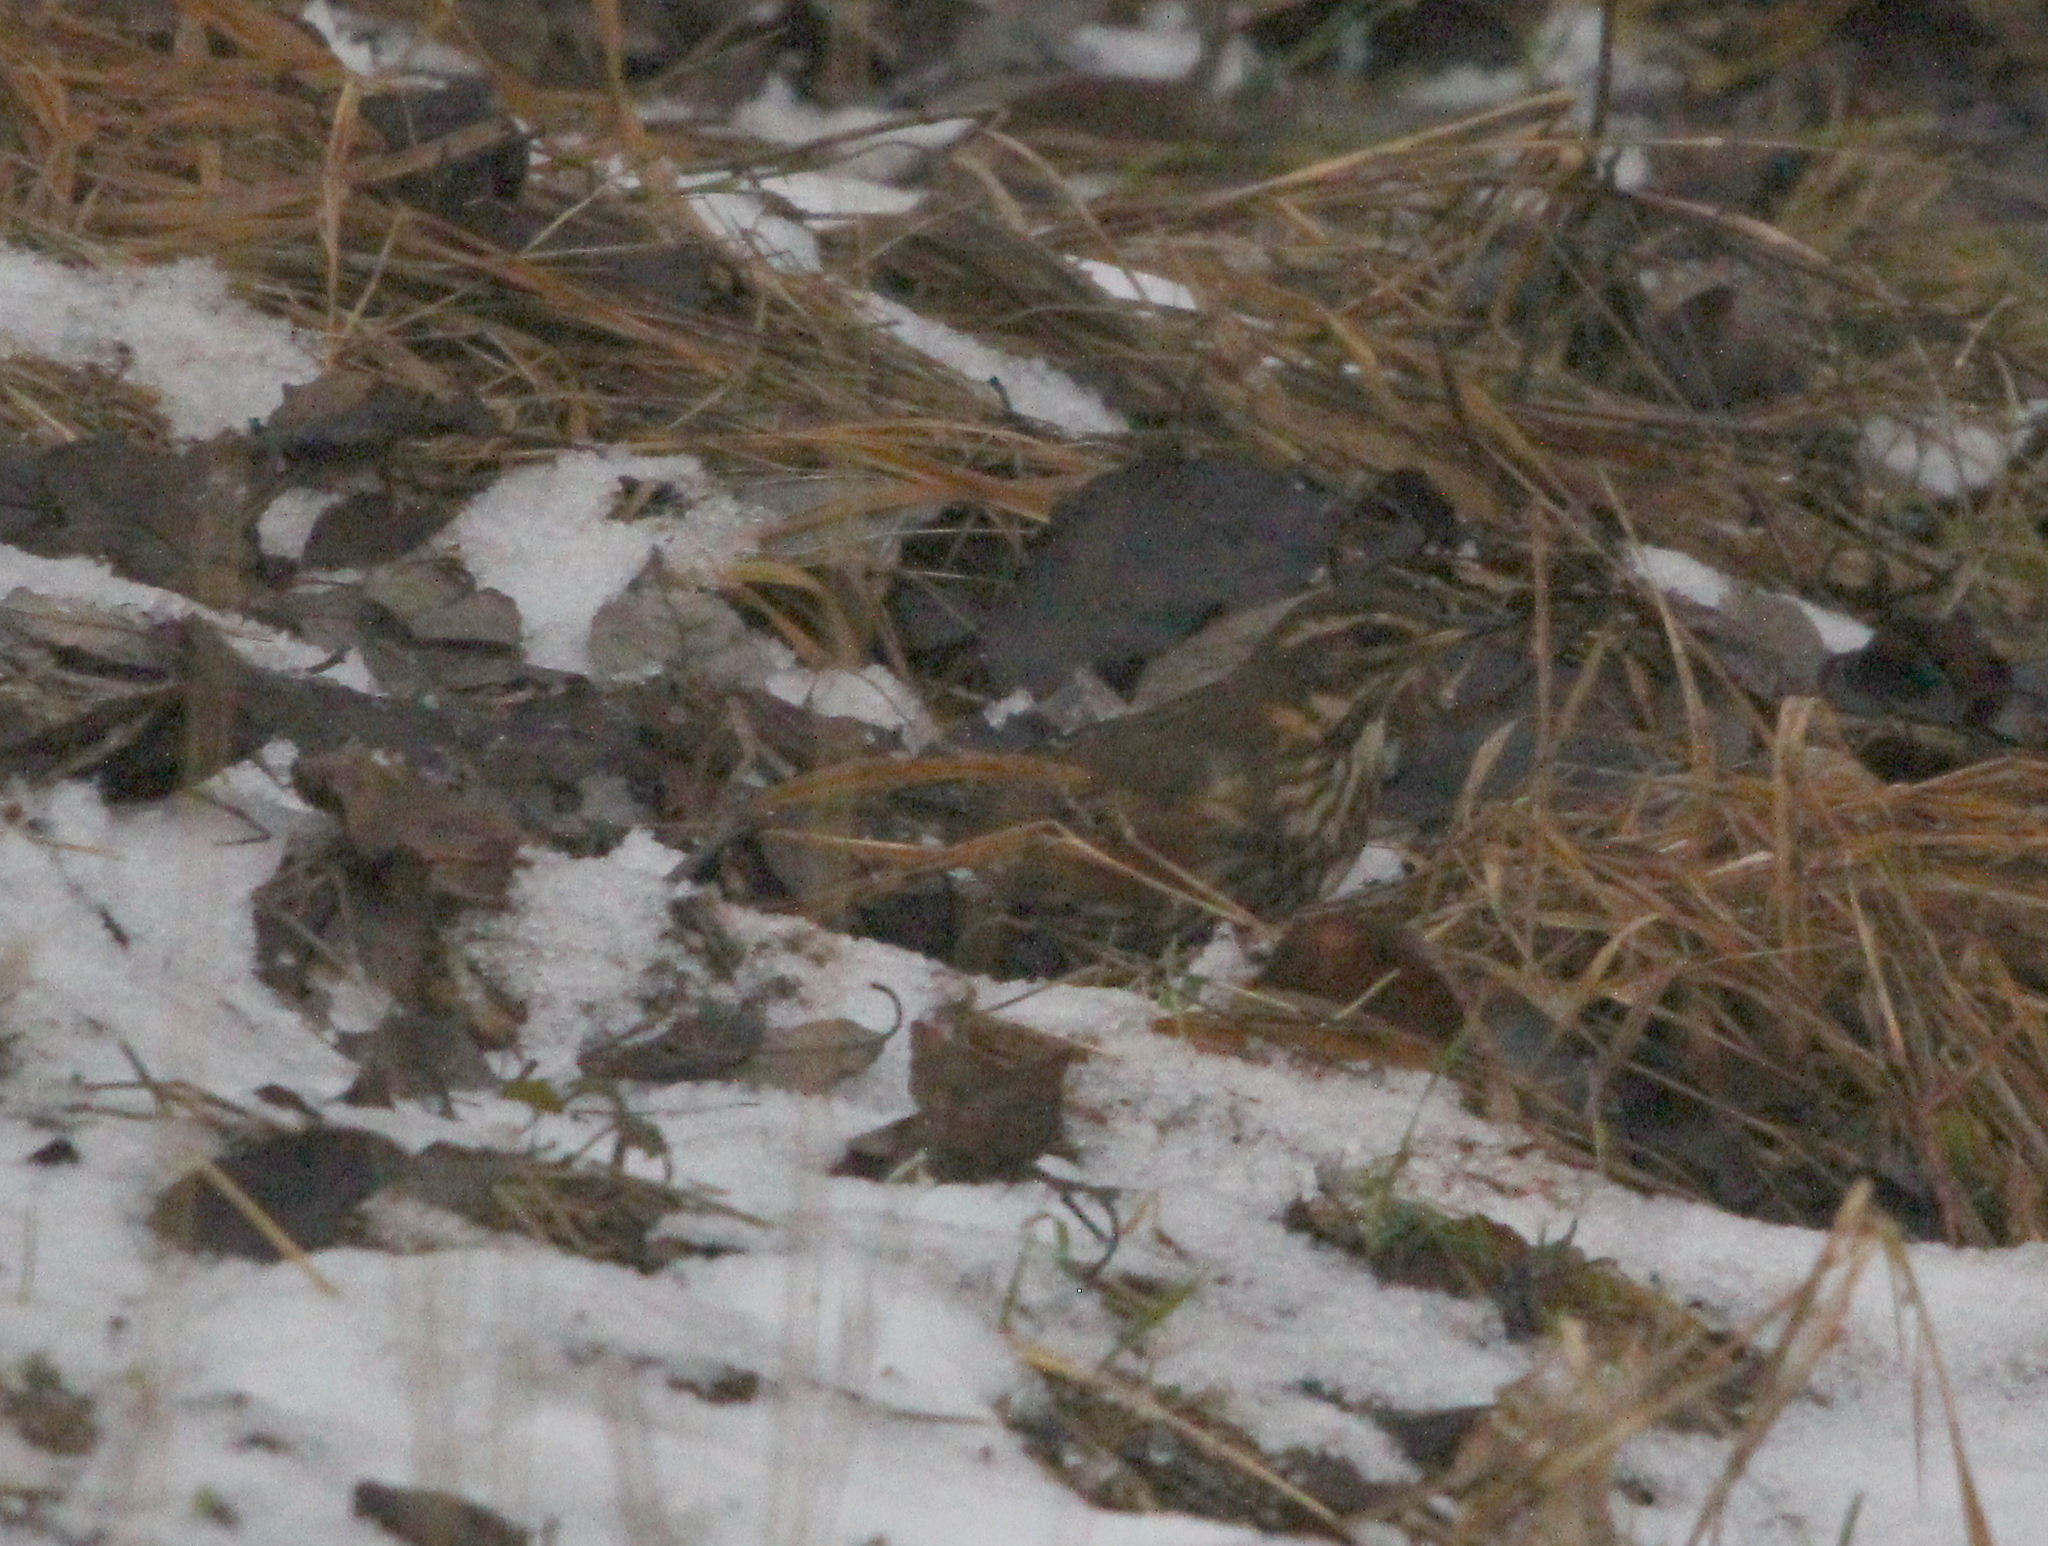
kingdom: Animalia
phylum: Chordata
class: Aves
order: Passeriformes
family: Turdidae
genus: Turdus
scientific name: Turdus iliacus
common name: Redwing
